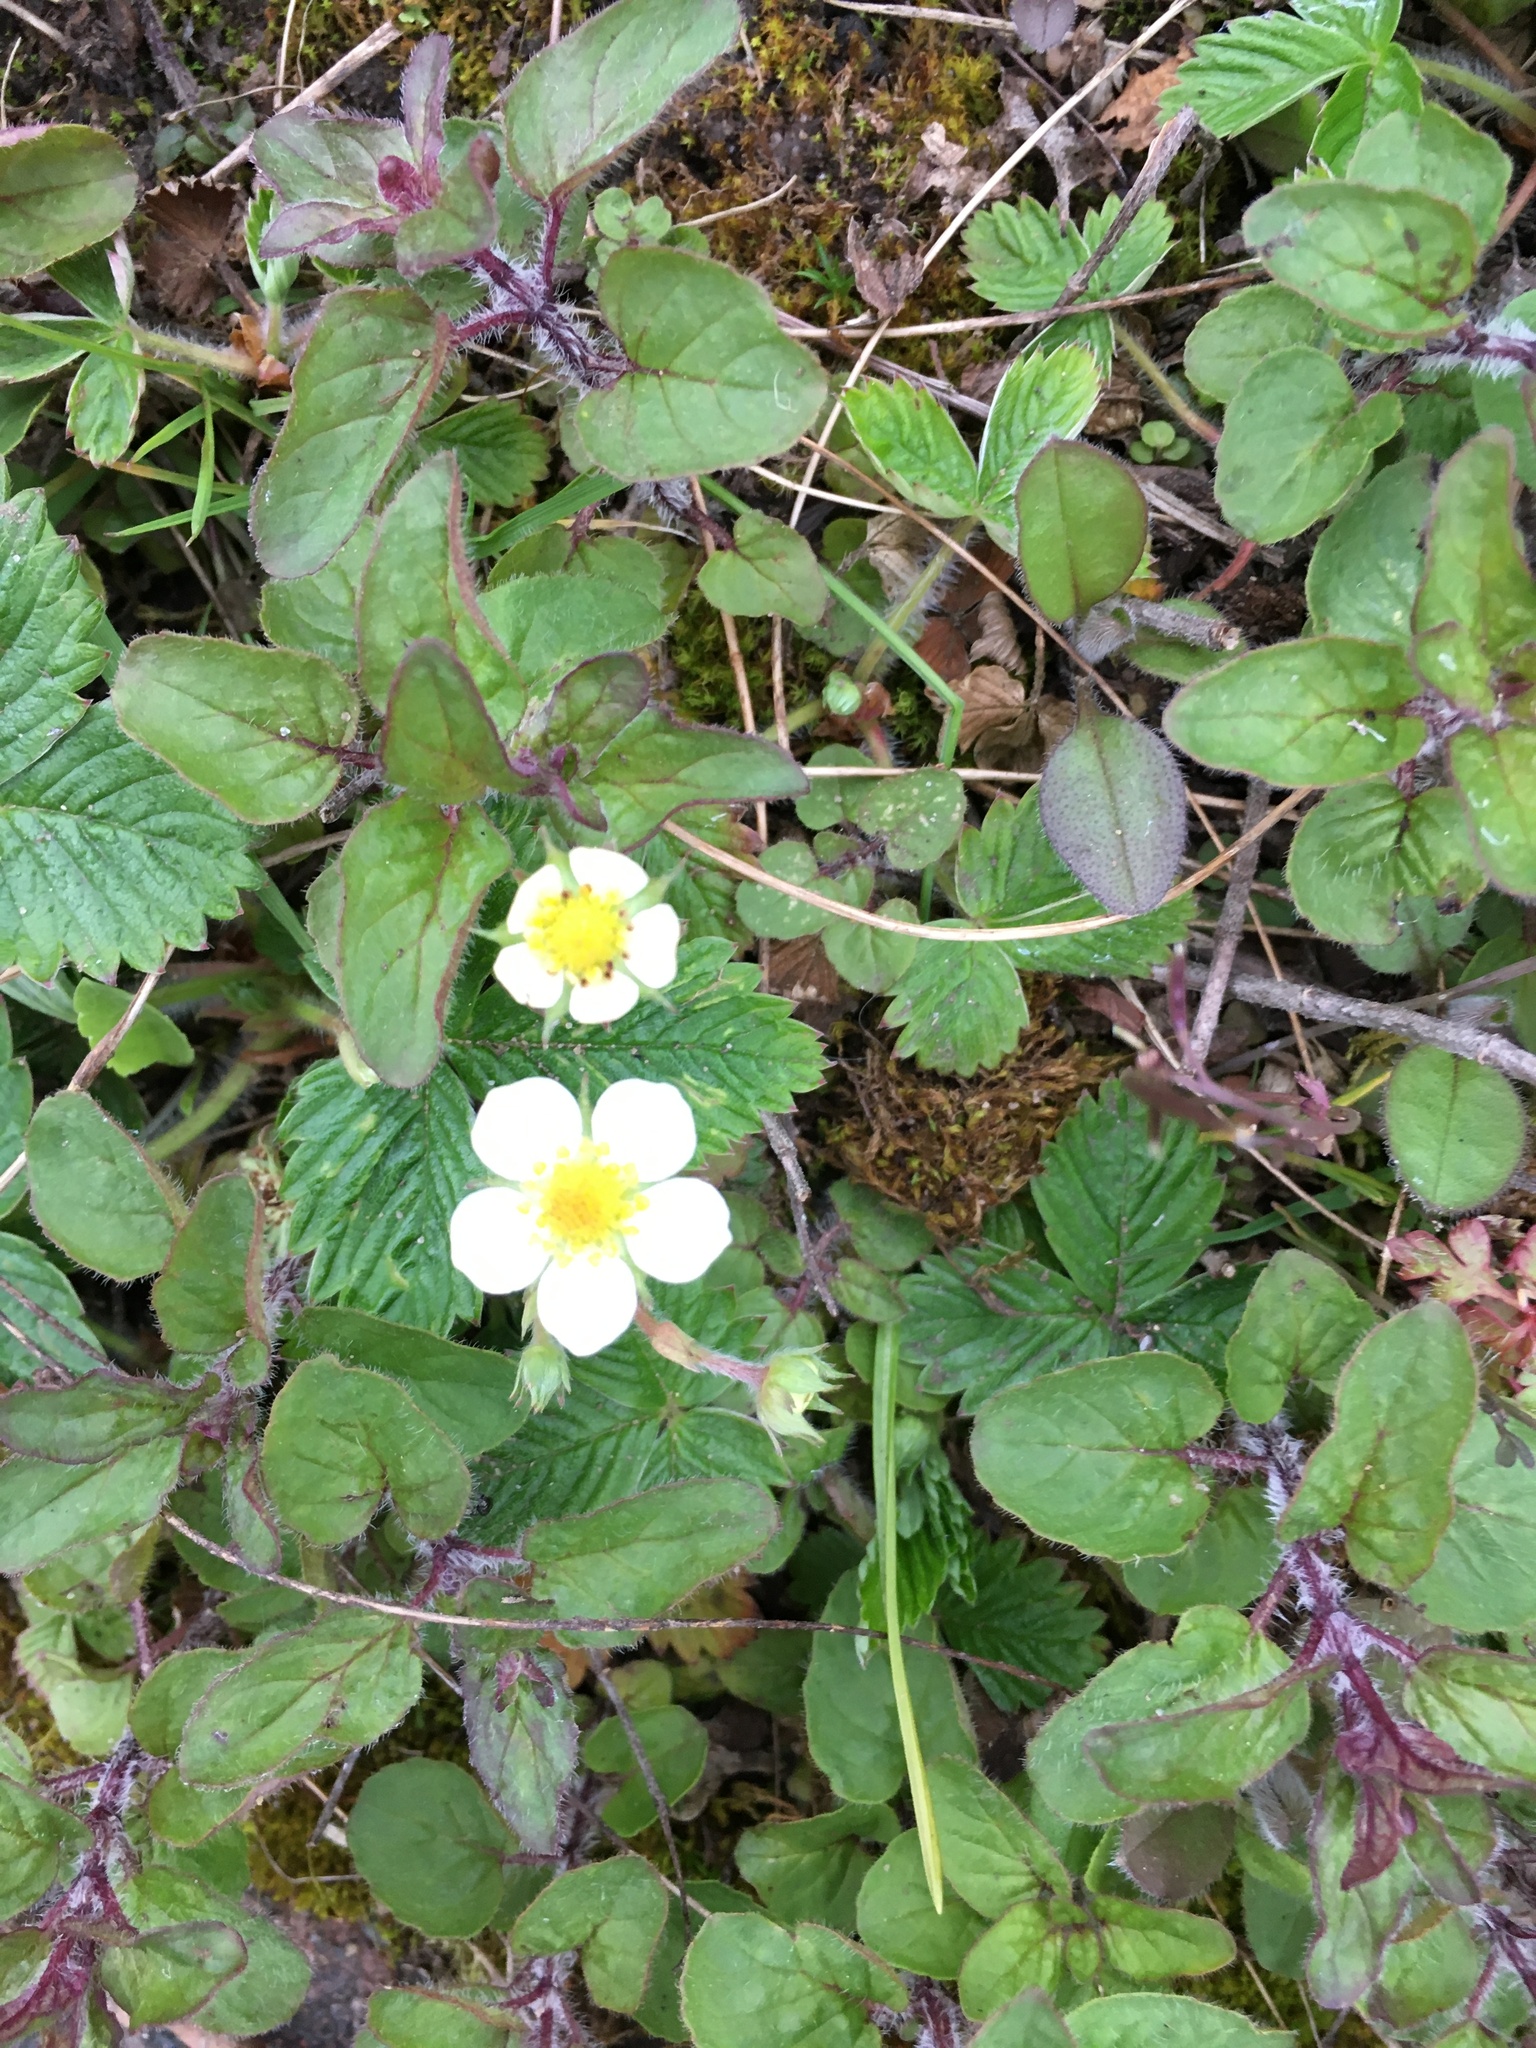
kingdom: Plantae
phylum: Tracheophyta
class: Magnoliopsida
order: Rosales
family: Rosaceae
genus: Fragaria
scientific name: Fragaria vesca
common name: Wild strawberry
